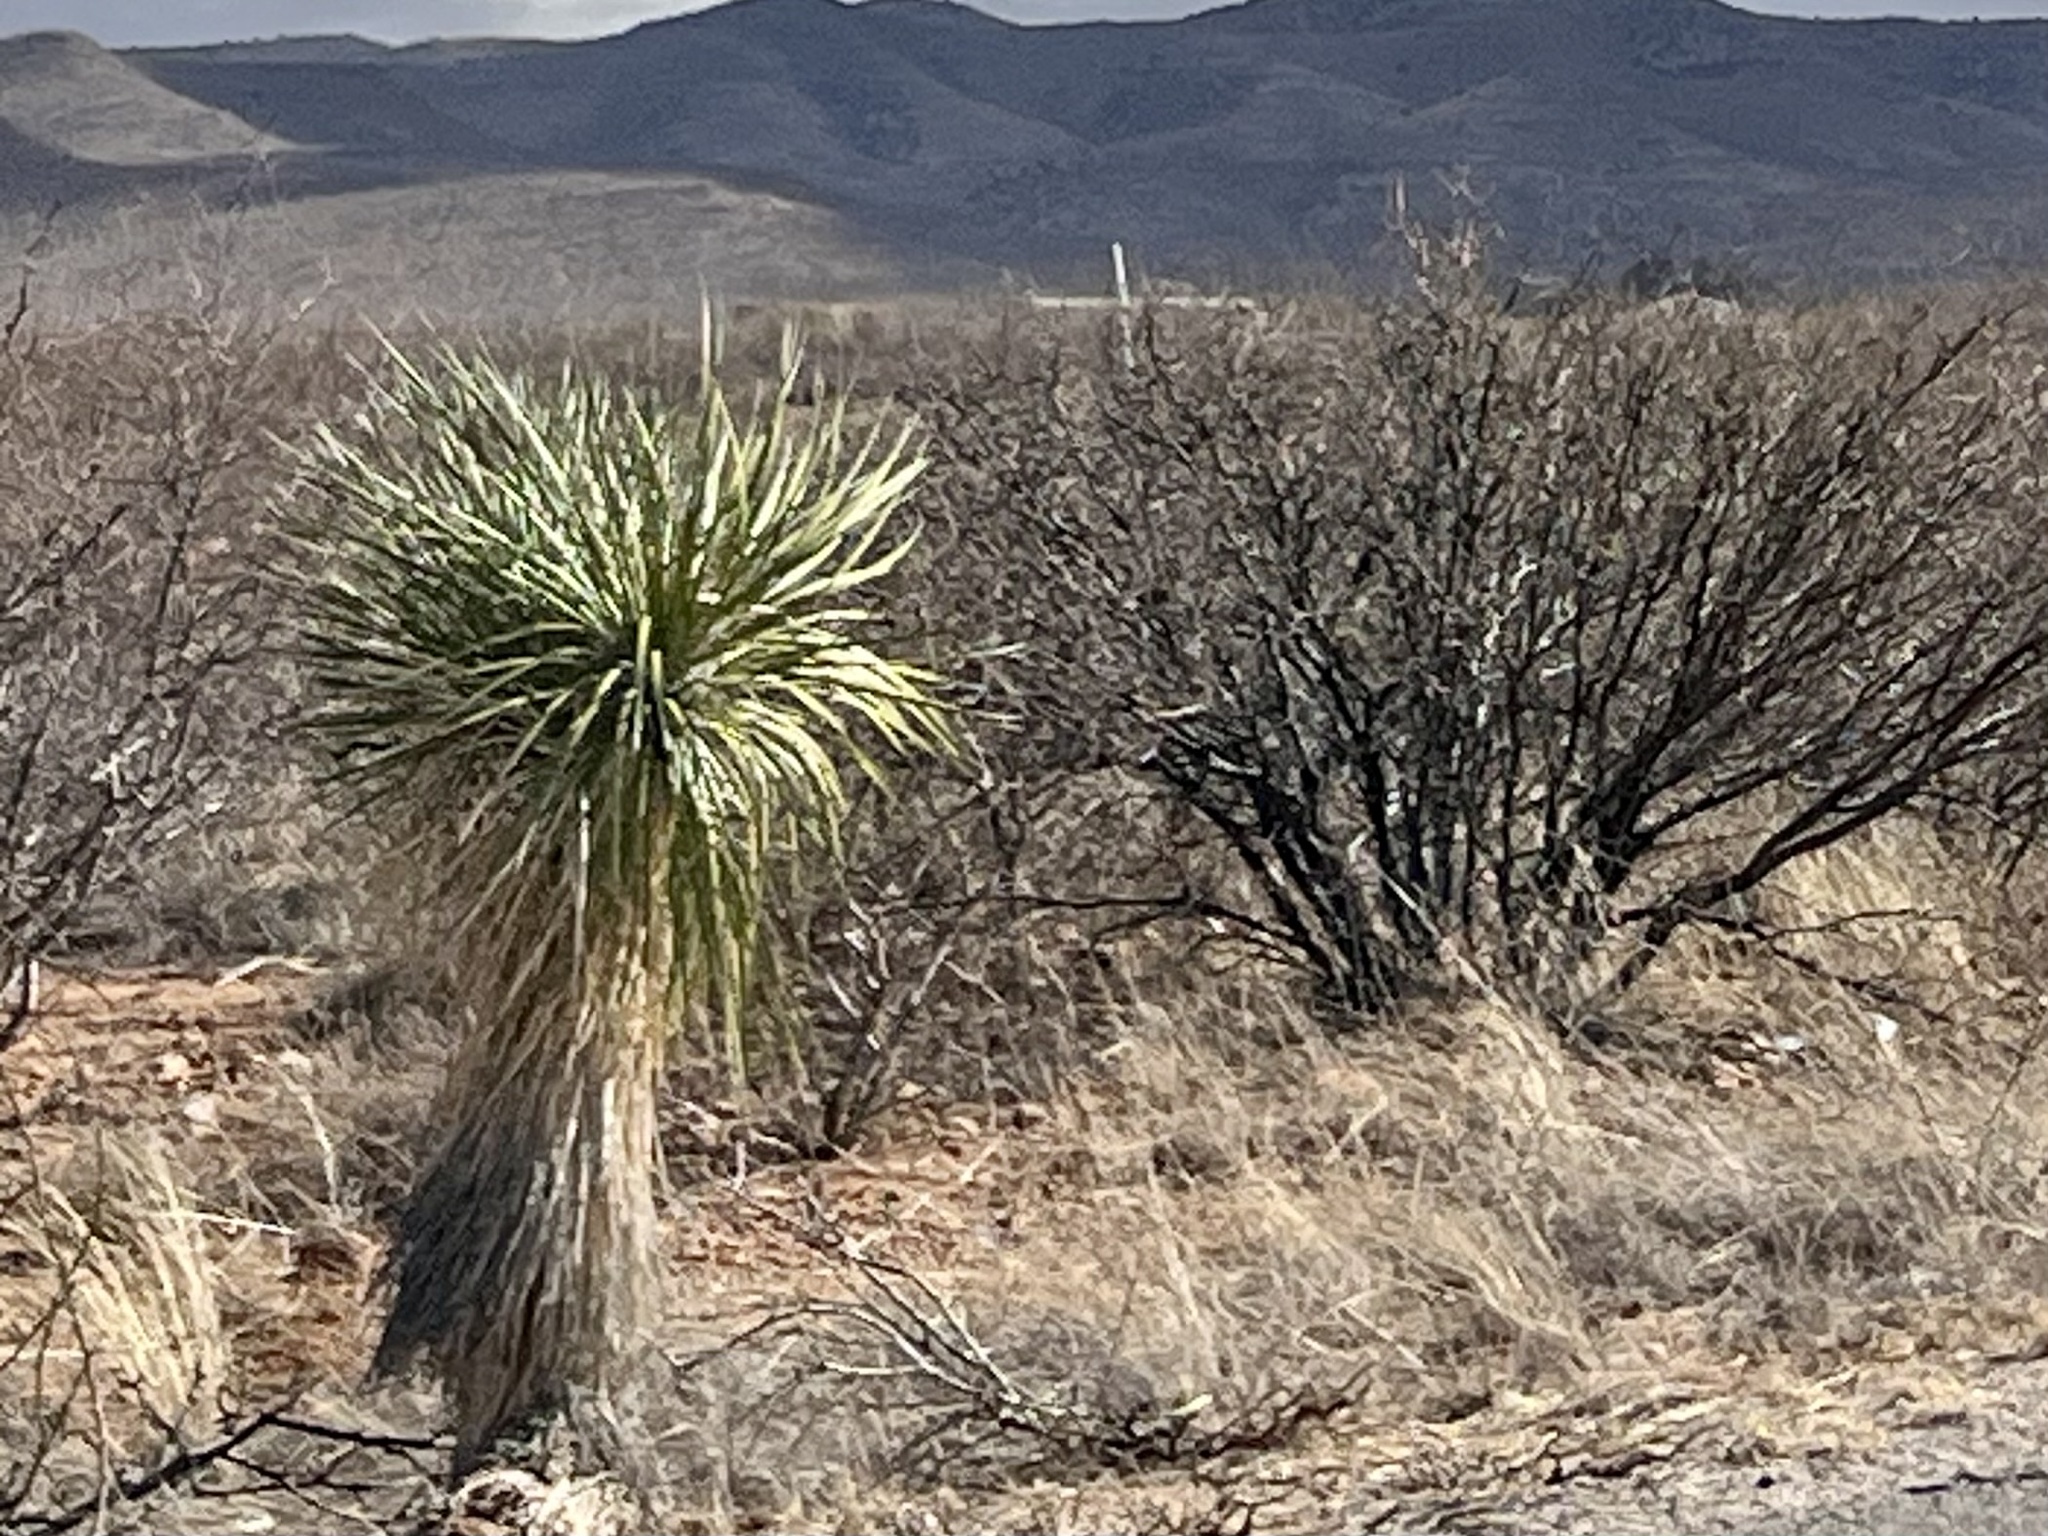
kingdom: Plantae
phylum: Tracheophyta
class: Liliopsida
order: Asparagales
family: Asparagaceae
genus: Yucca
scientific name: Yucca elata
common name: Palmella
